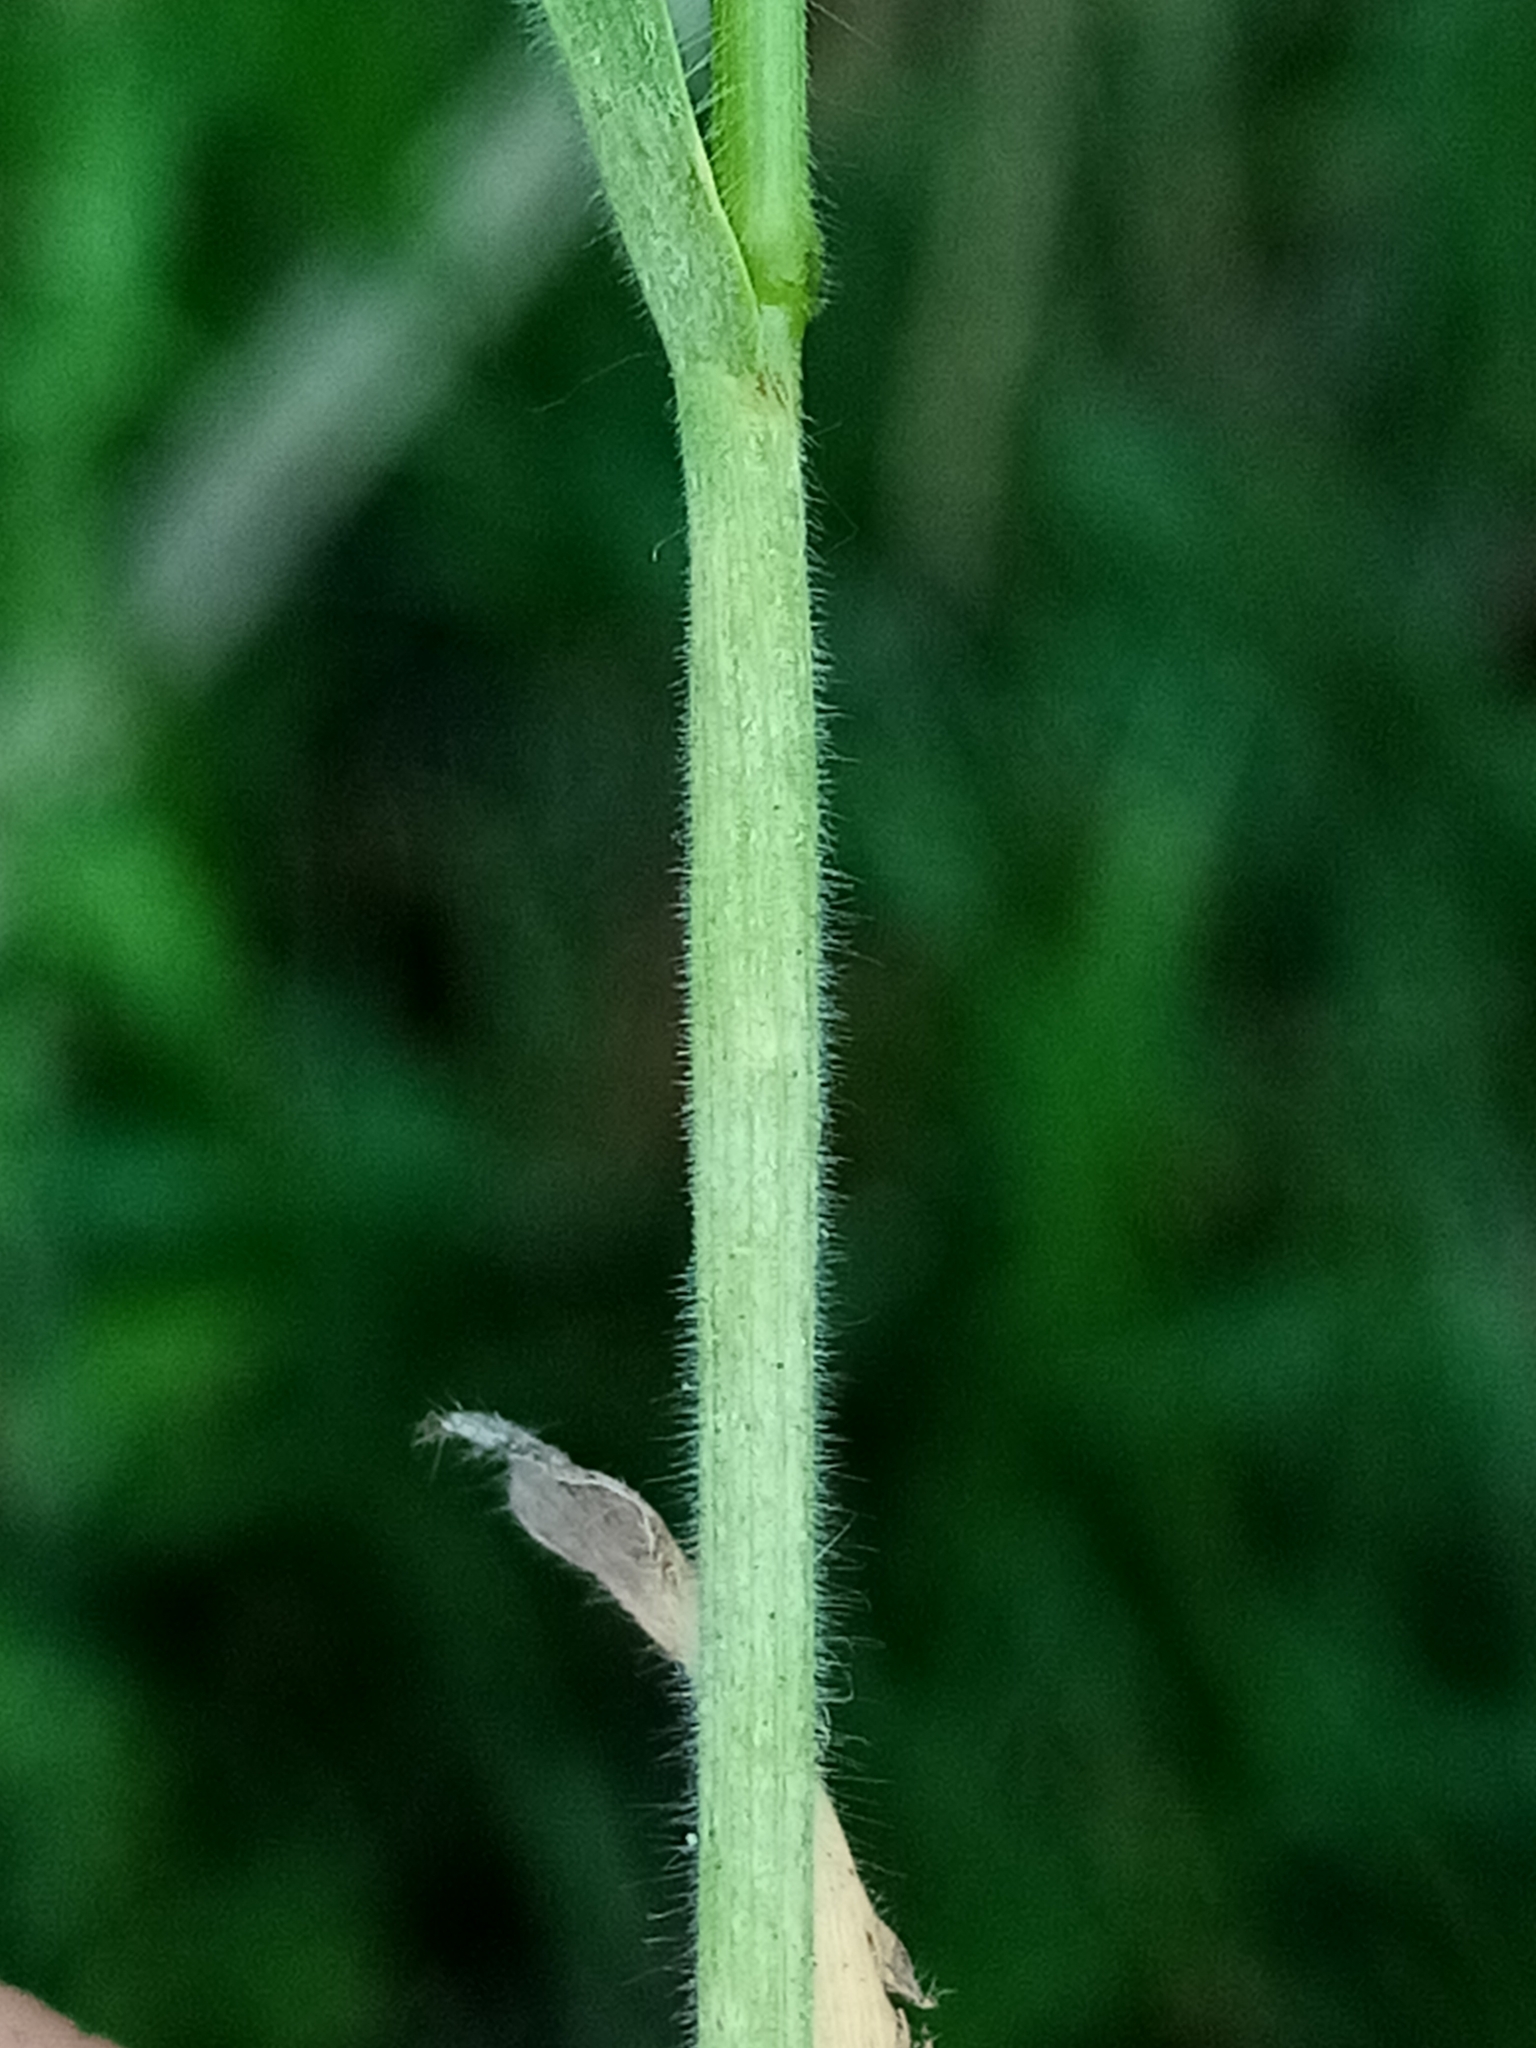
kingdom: Plantae
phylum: Tracheophyta
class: Liliopsida
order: Poales
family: Poaceae
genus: Bromus
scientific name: Bromus hordeaceus
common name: Soft brome
